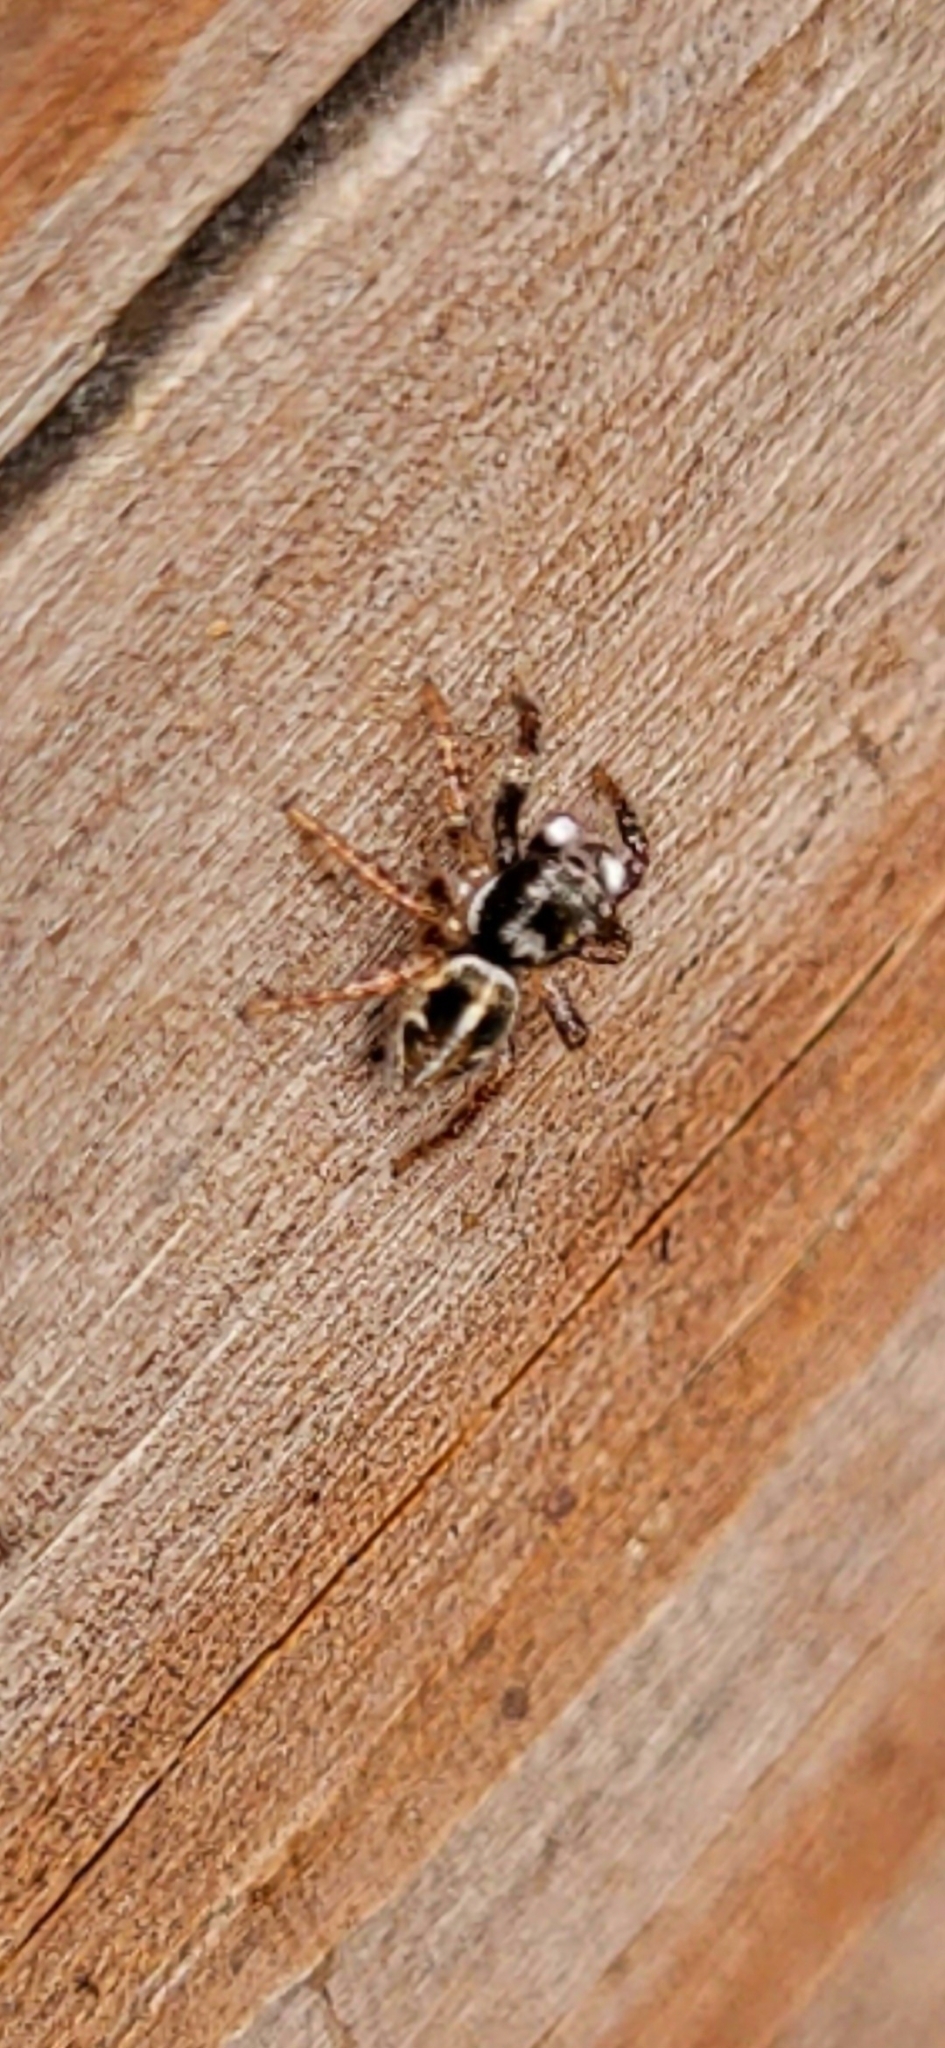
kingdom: Animalia
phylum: Arthropoda
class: Arachnida
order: Araneae
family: Salticidae
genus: Anasaitis
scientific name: Anasaitis canosa
